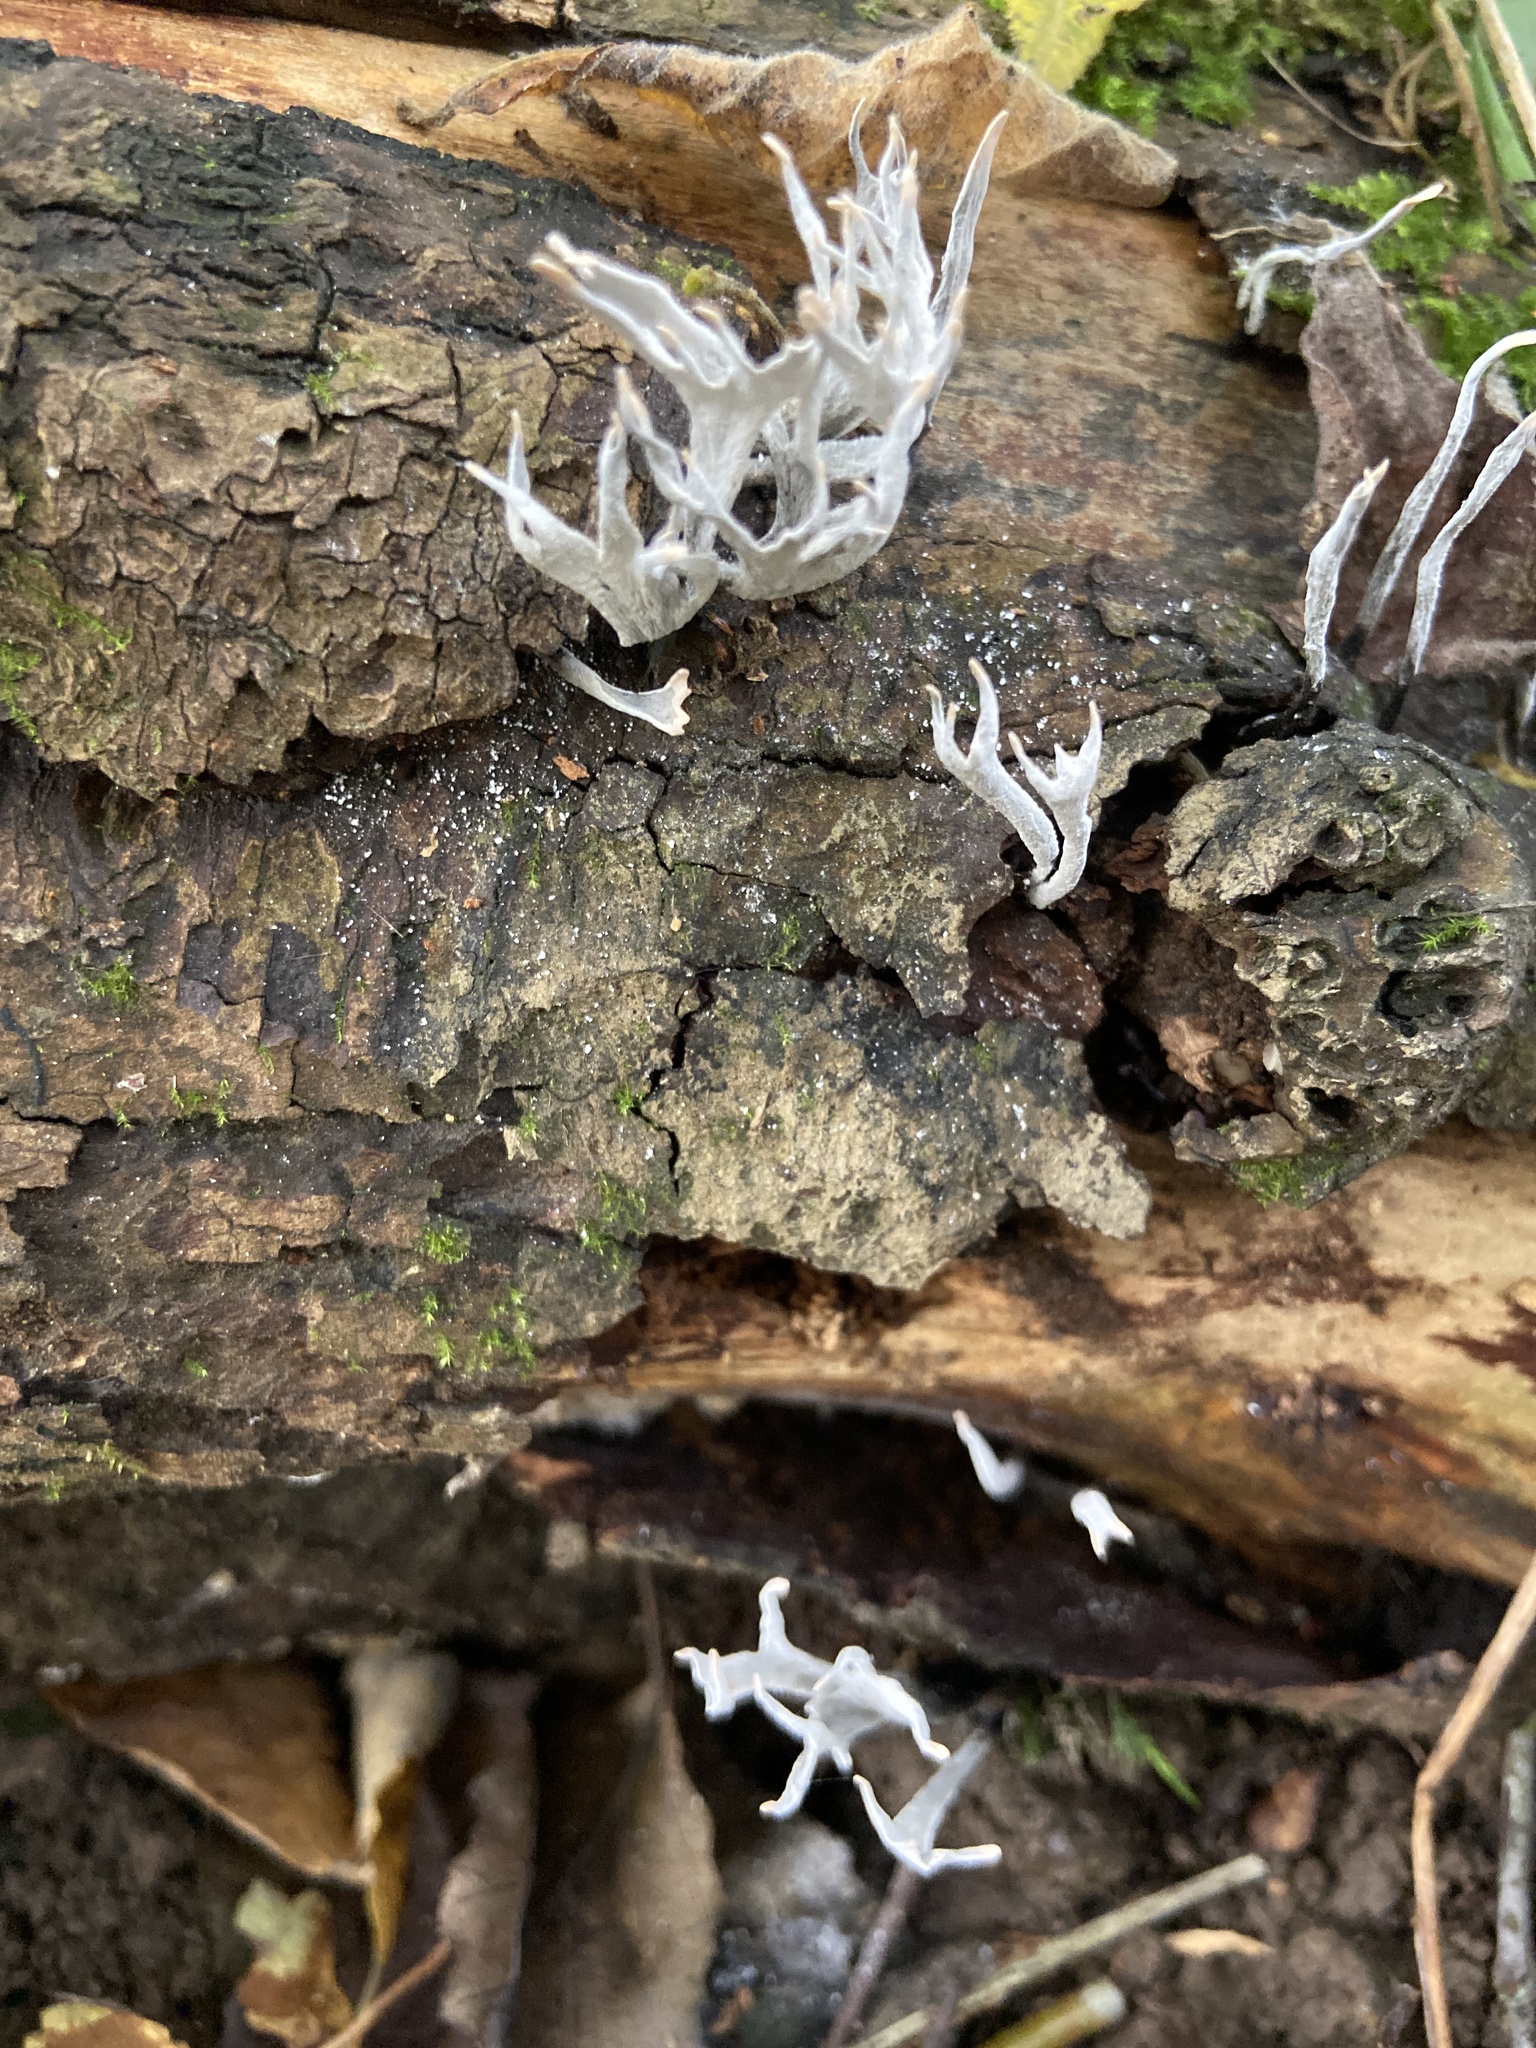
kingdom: Fungi
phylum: Ascomycota
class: Sordariomycetes
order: Xylariales
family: Xylariaceae
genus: Xylaria
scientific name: Xylaria hypoxylon
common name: Candle-snuff fungus
